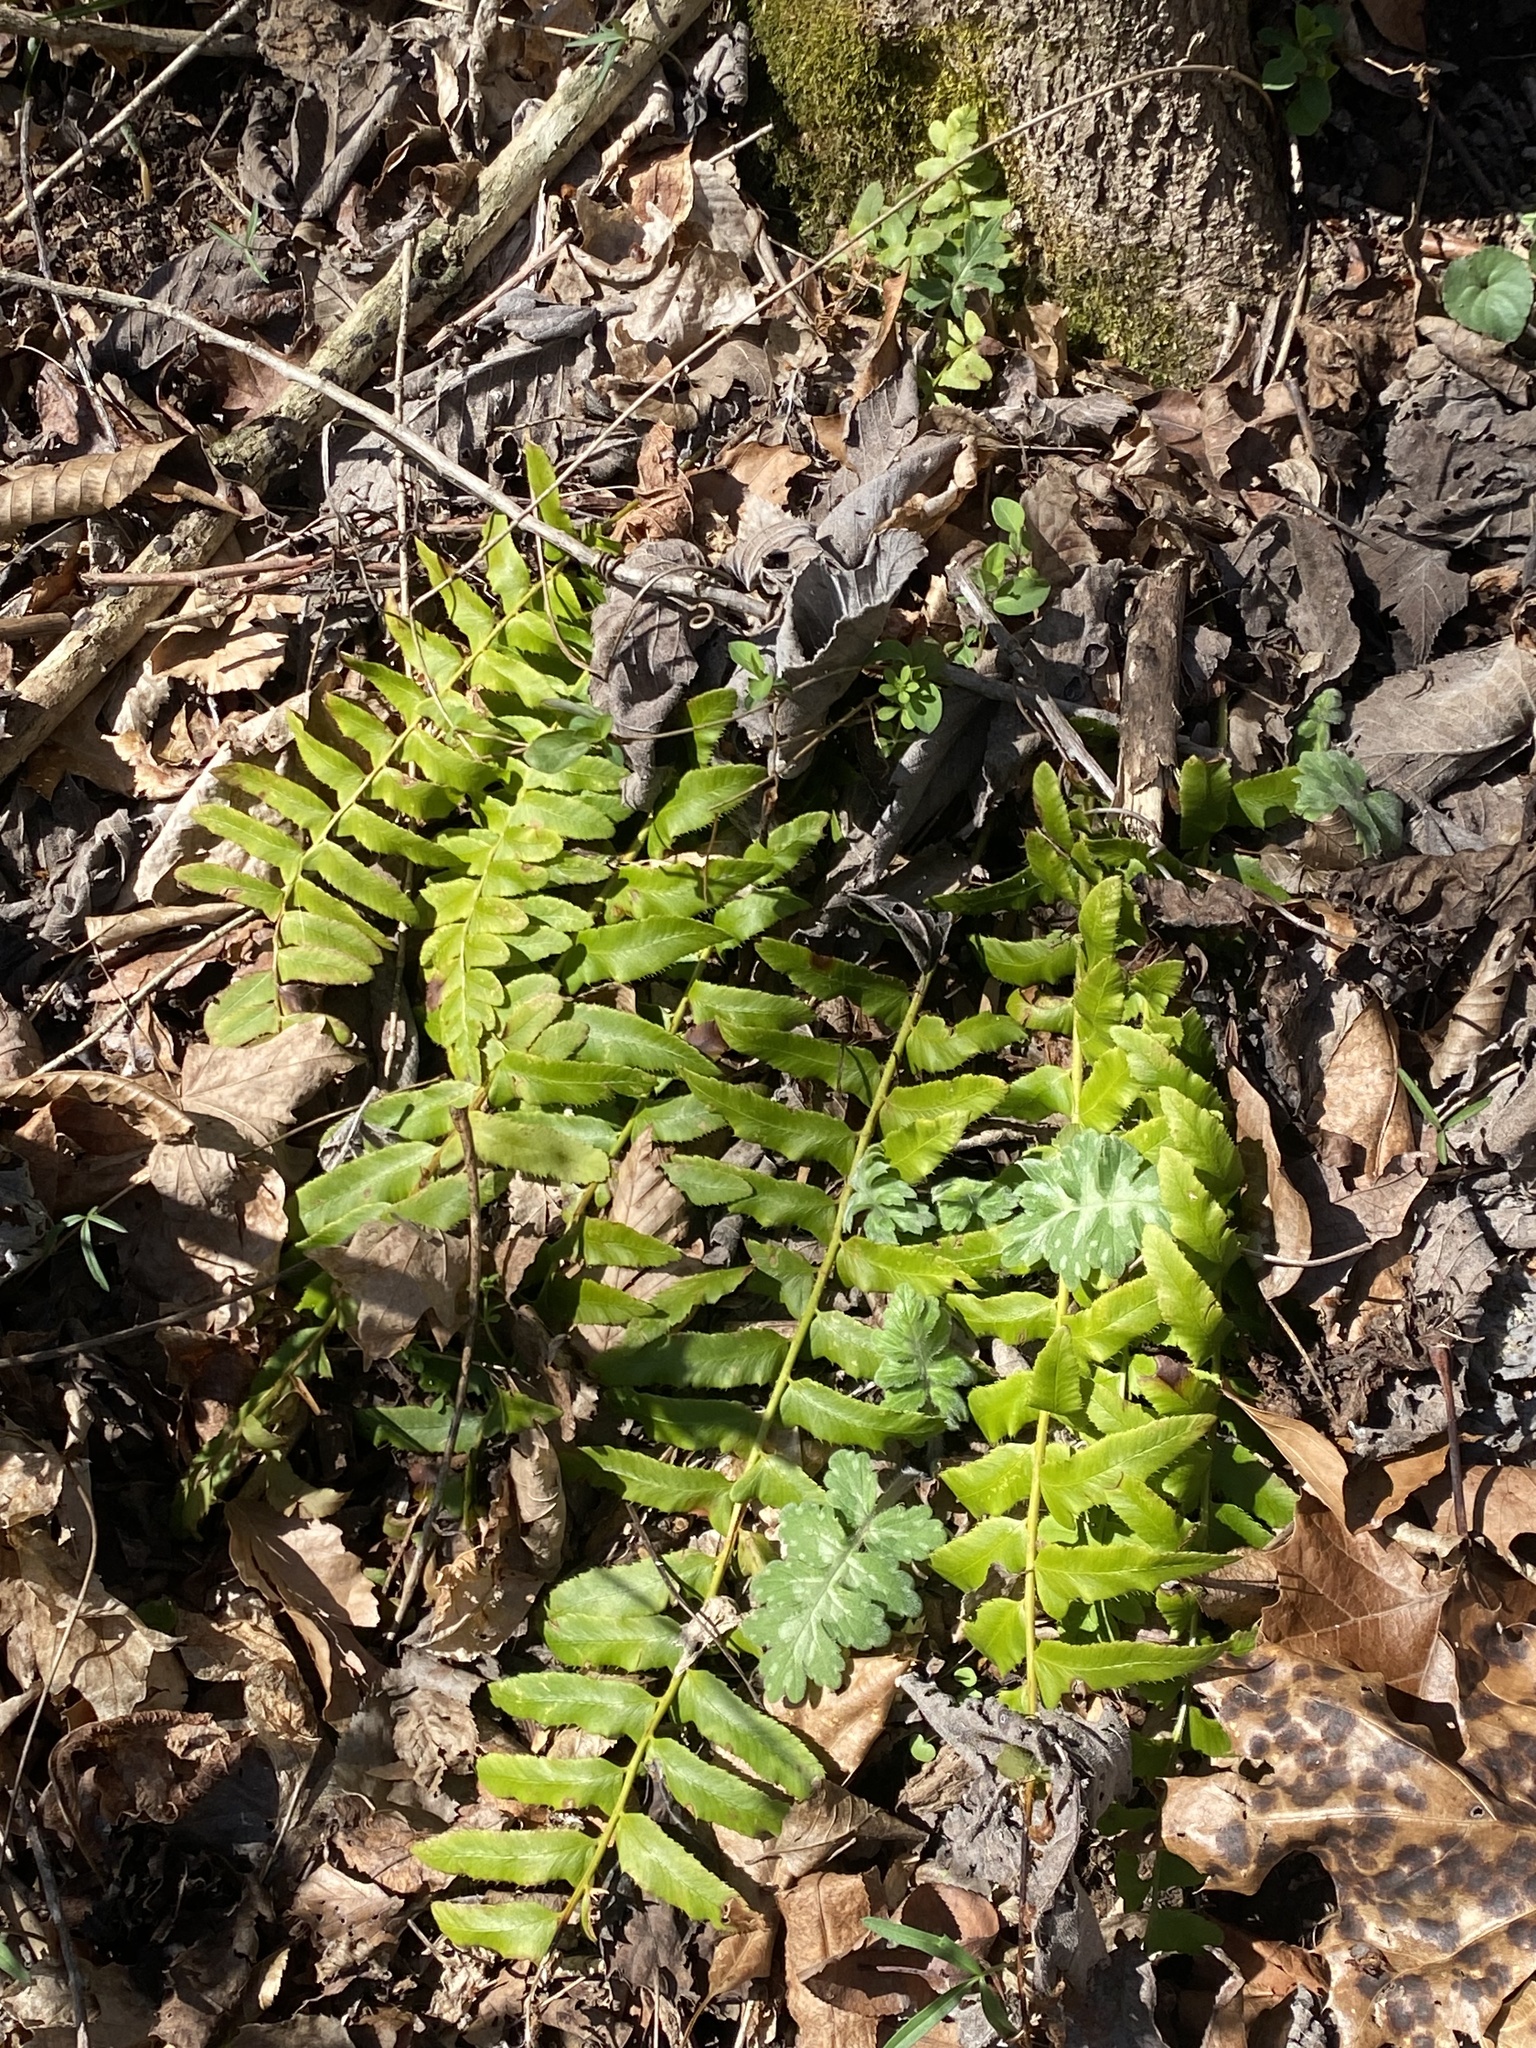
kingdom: Plantae
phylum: Tracheophyta
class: Polypodiopsida
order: Polypodiales
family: Dryopteridaceae
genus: Polystichum
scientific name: Polystichum acrostichoides
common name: Christmas fern
